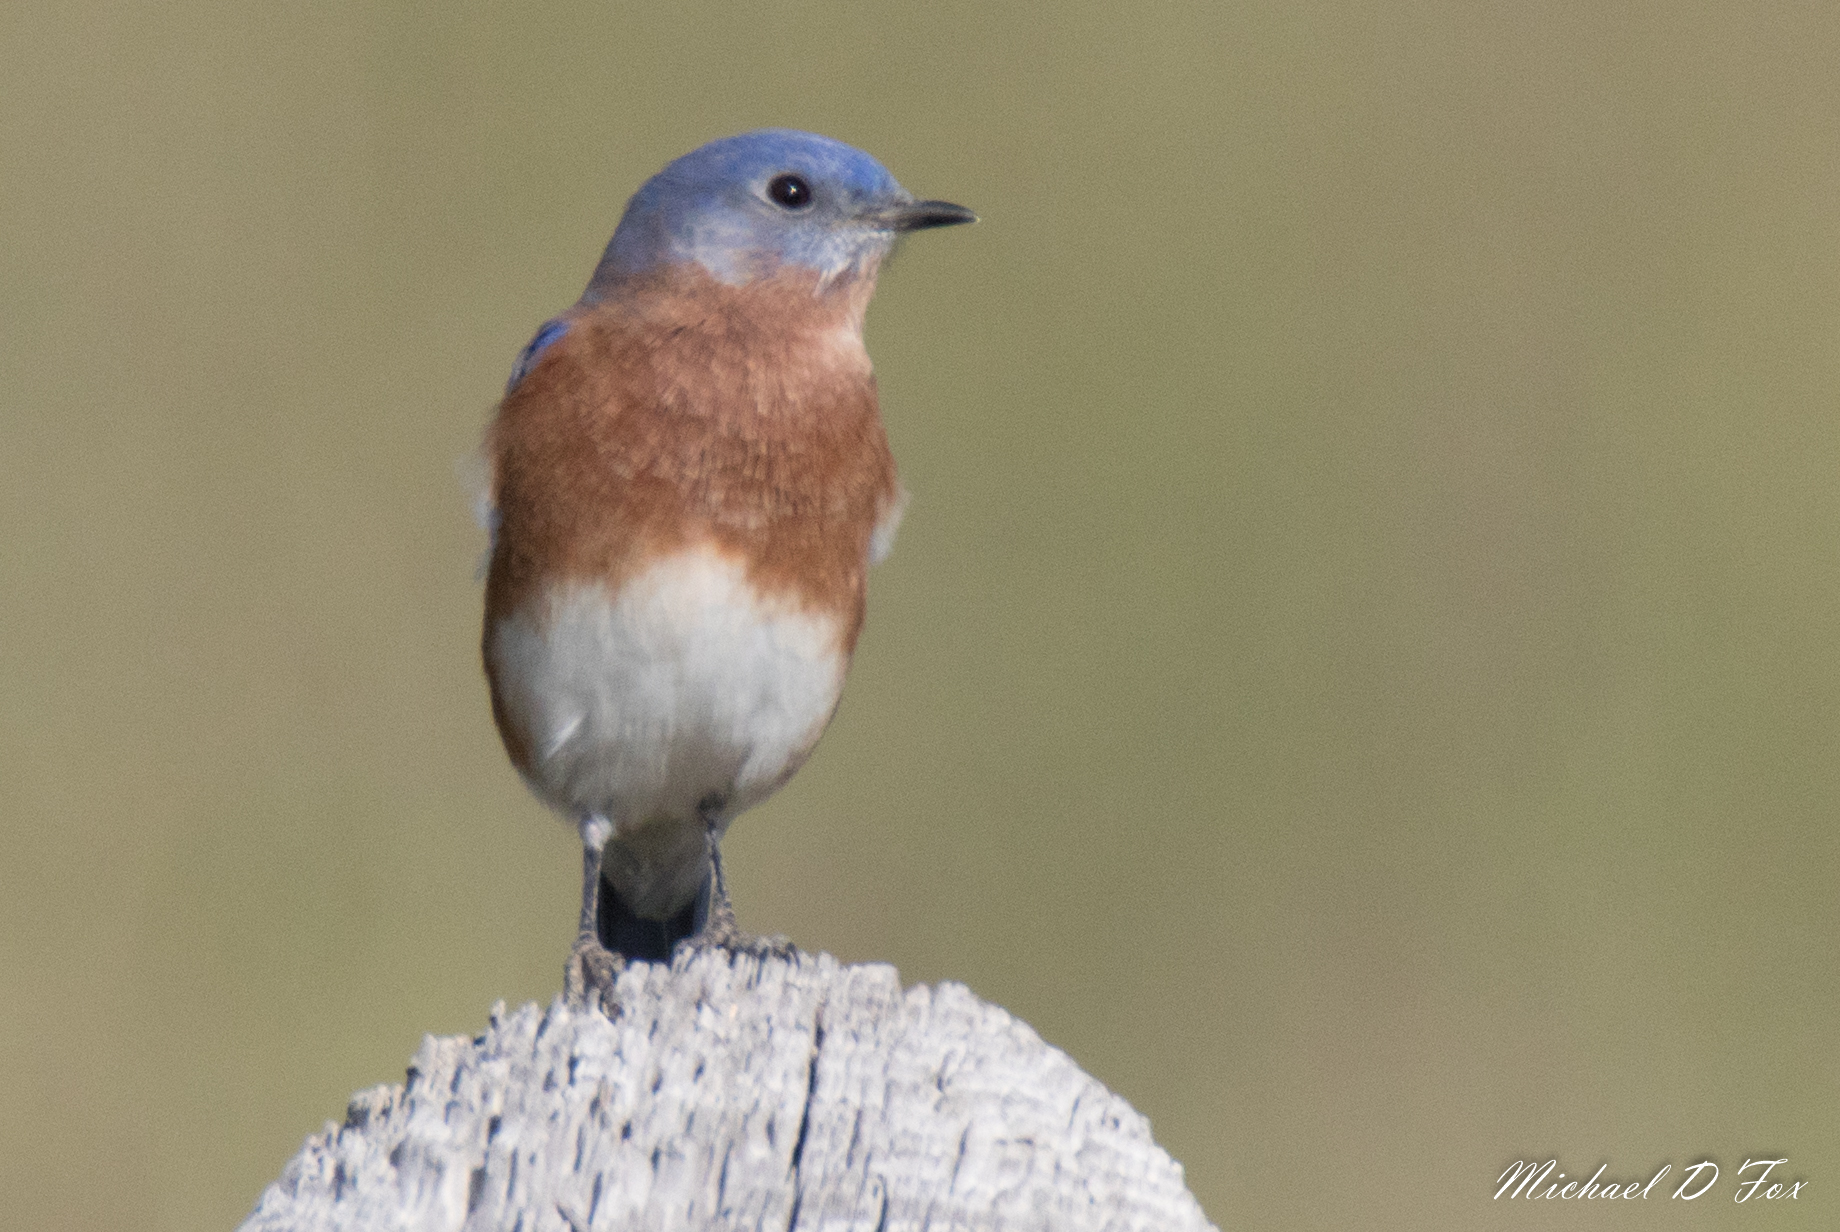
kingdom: Animalia
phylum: Chordata
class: Aves
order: Passeriformes
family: Turdidae
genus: Sialia
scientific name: Sialia sialis
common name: Eastern bluebird
